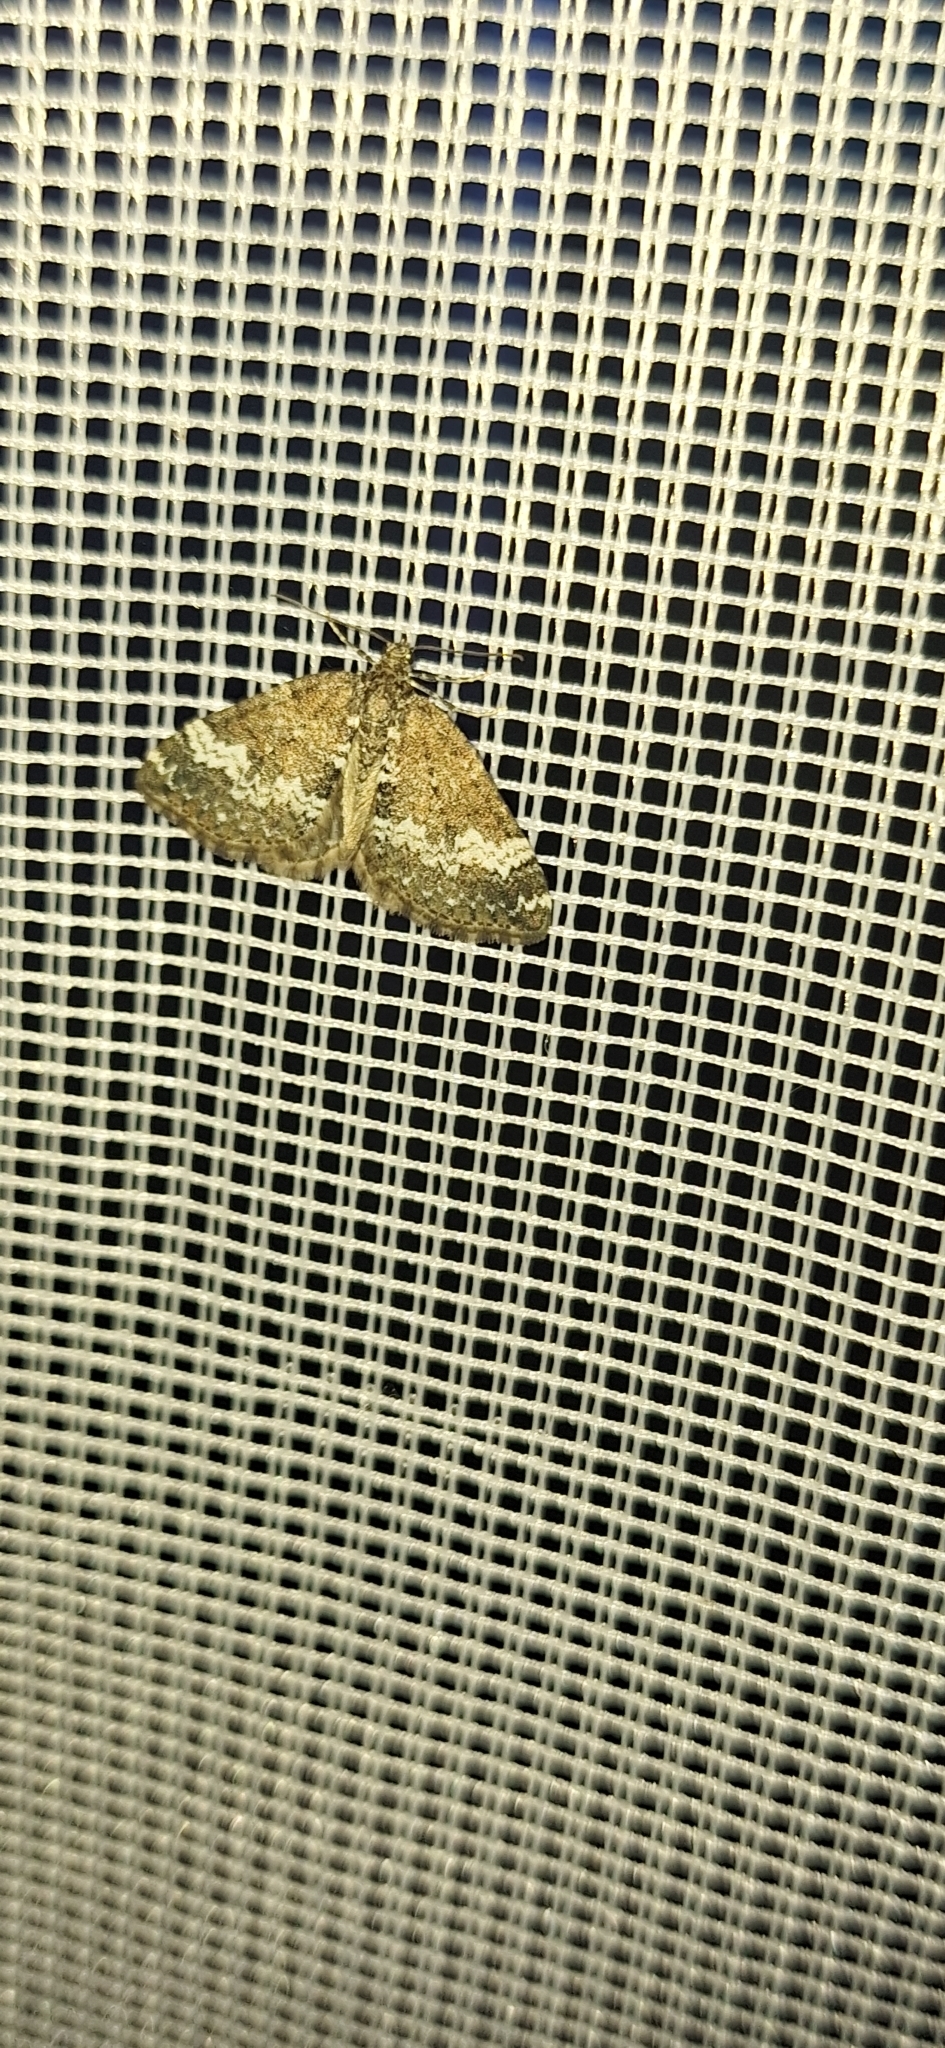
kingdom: Animalia
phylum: Arthropoda
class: Insecta
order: Lepidoptera
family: Geometridae
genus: Perizoma
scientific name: Perizoma alchemillata
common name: Small rivulet
